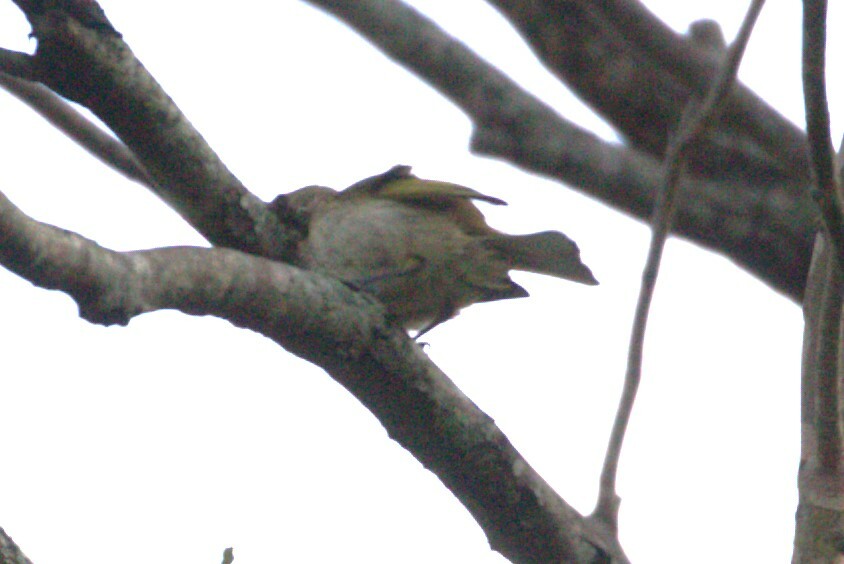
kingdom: Animalia
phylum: Chordata
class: Aves
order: Passeriformes
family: Meliphagidae
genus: Lichmera
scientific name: Lichmera indistincta
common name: Brown honeyeater
